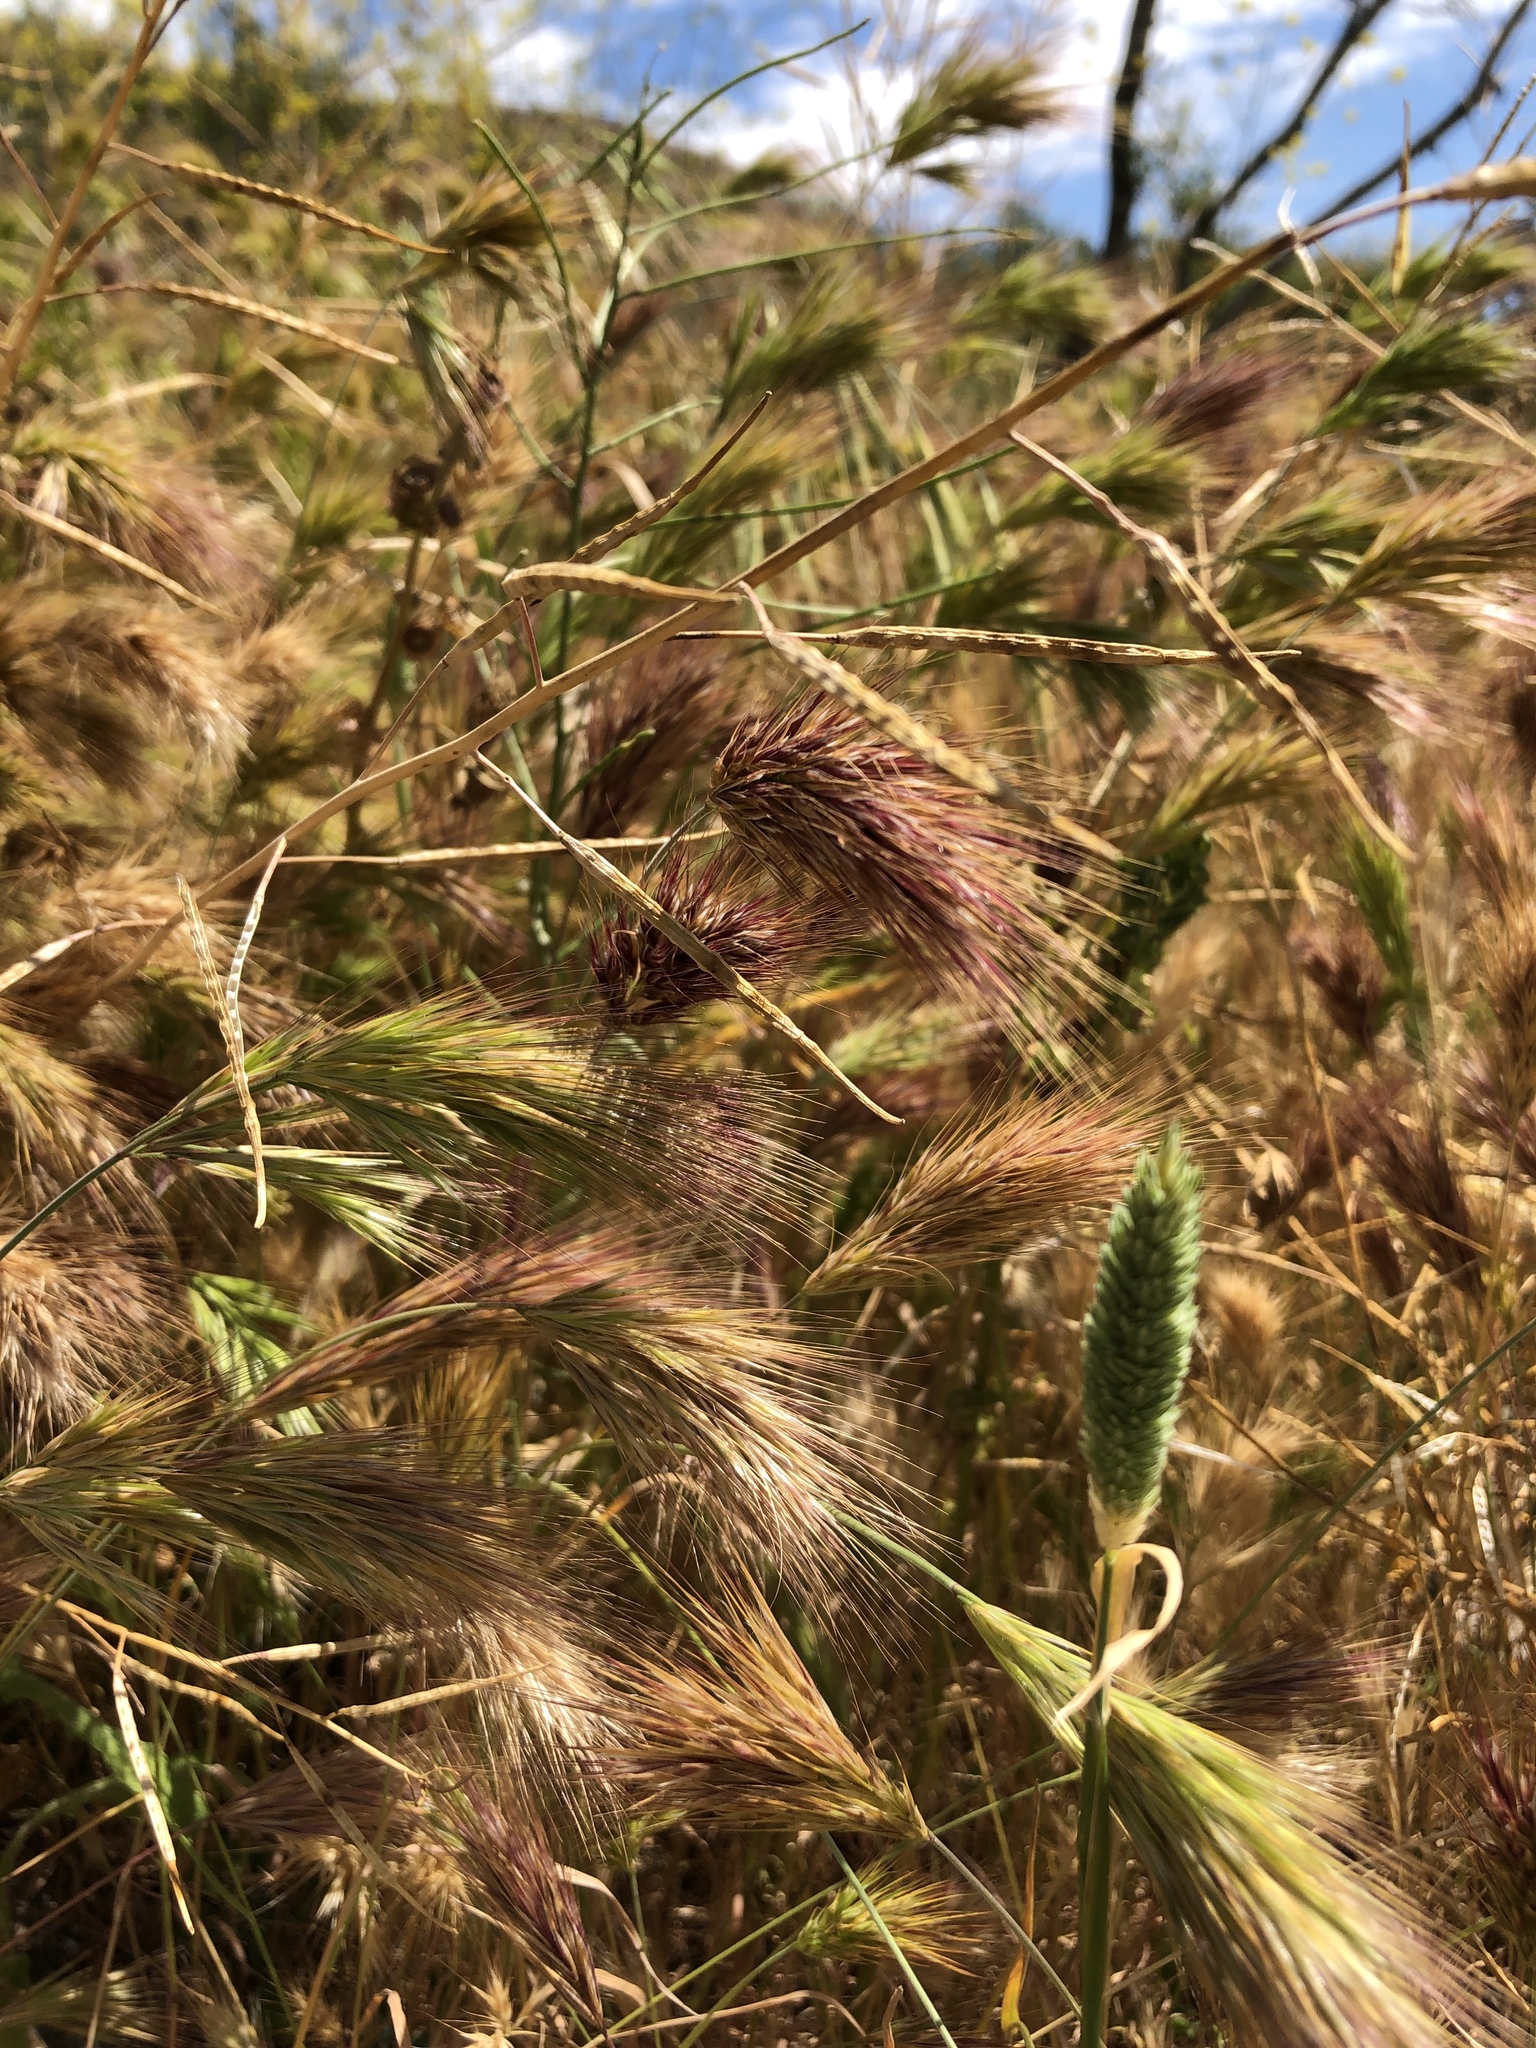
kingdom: Plantae
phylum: Tracheophyta
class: Liliopsida
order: Poales
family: Poaceae
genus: Bromus
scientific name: Bromus rubens
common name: Red brome
